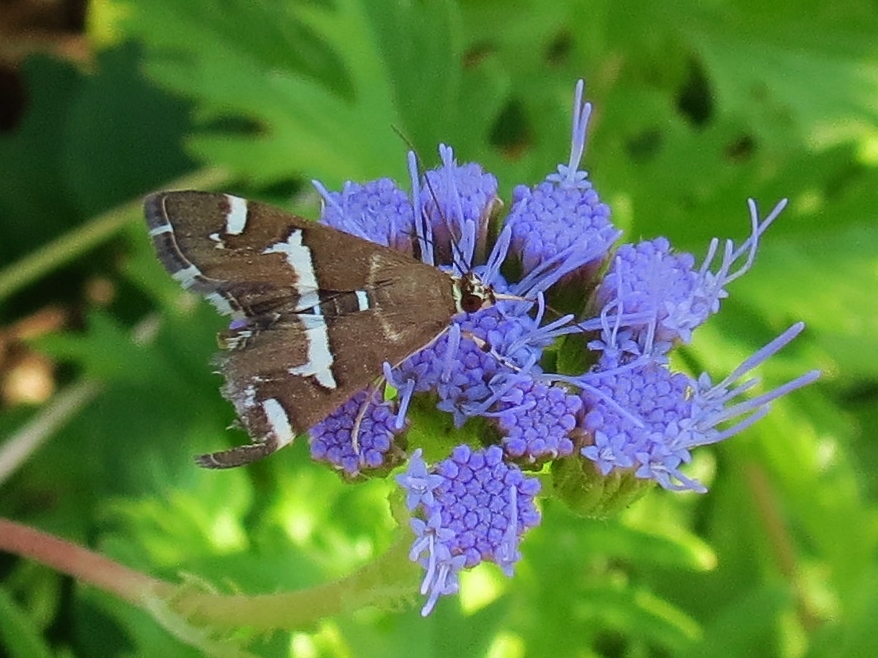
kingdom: Animalia
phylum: Arthropoda
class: Insecta
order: Lepidoptera
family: Crambidae
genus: Spoladea
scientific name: Spoladea recurvalis
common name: Beet webworm moth
